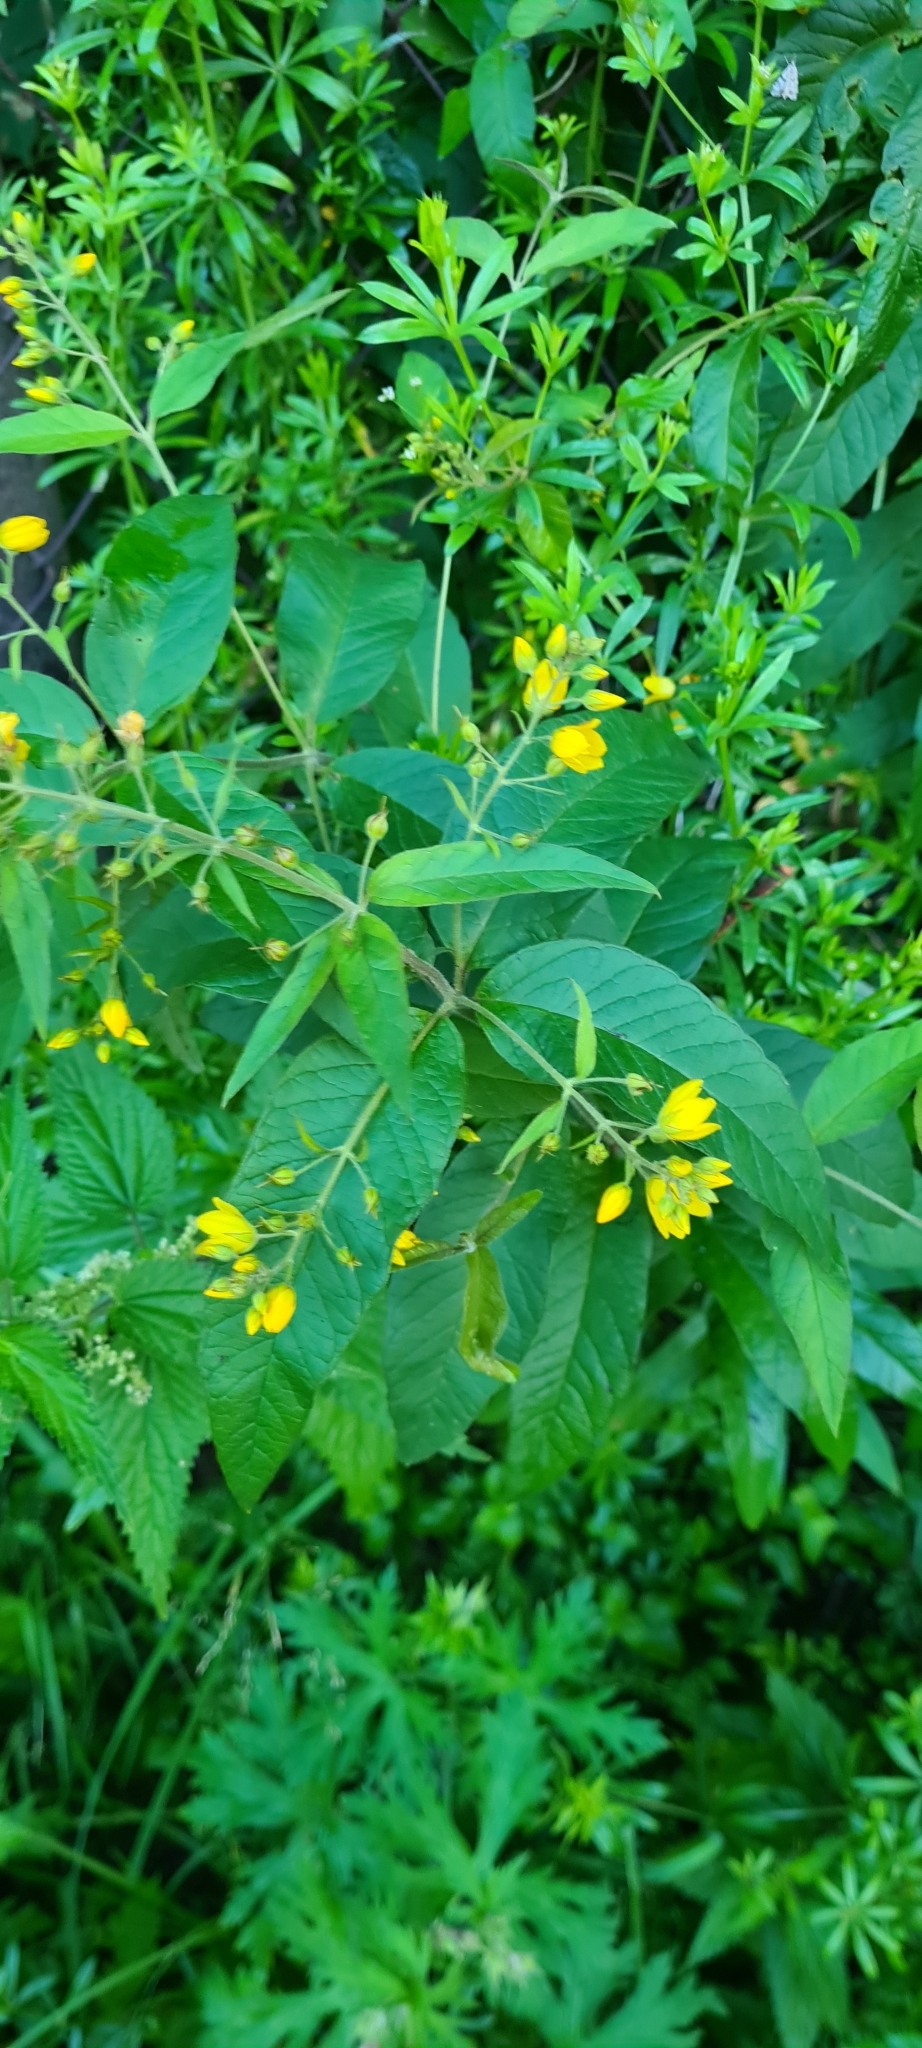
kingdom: Plantae
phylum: Tracheophyta
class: Magnoliopsida
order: Ericales
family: Primulaceae
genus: Lysimachia
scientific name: Lysimachia vulgaris
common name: Yellow loosestrife
